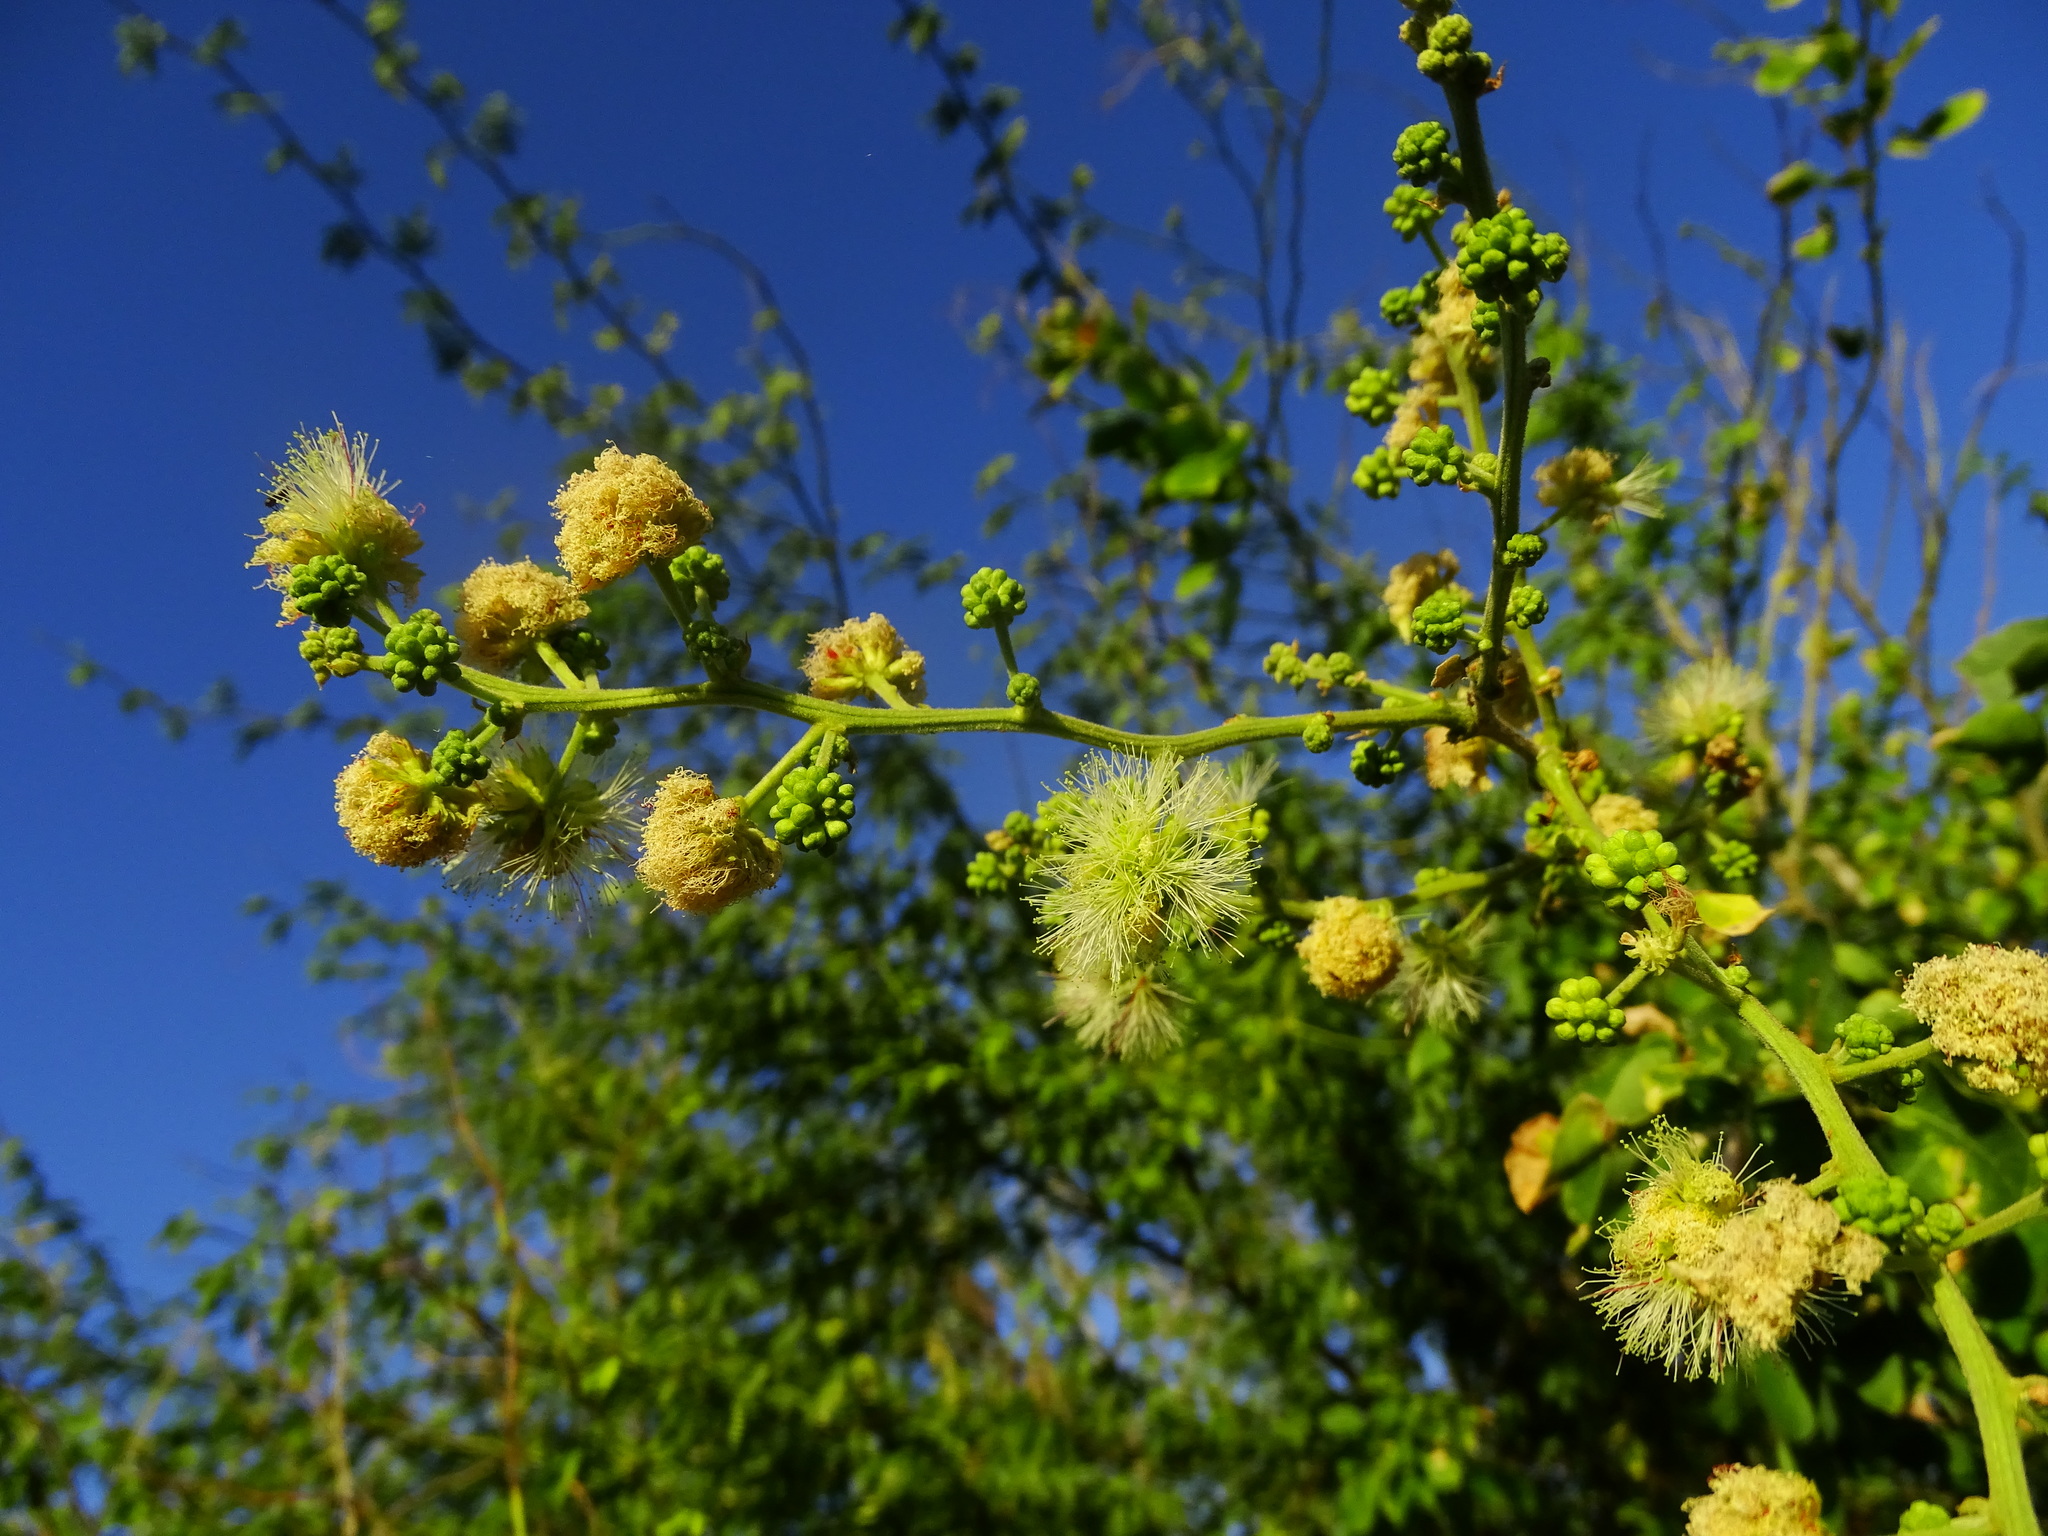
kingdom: Plantae
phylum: Tracheophyta
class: Magnoliopsida
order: Fabales
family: Fabaceae
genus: Leucaena
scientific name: Leucaena leucocephala
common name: White leadtree
